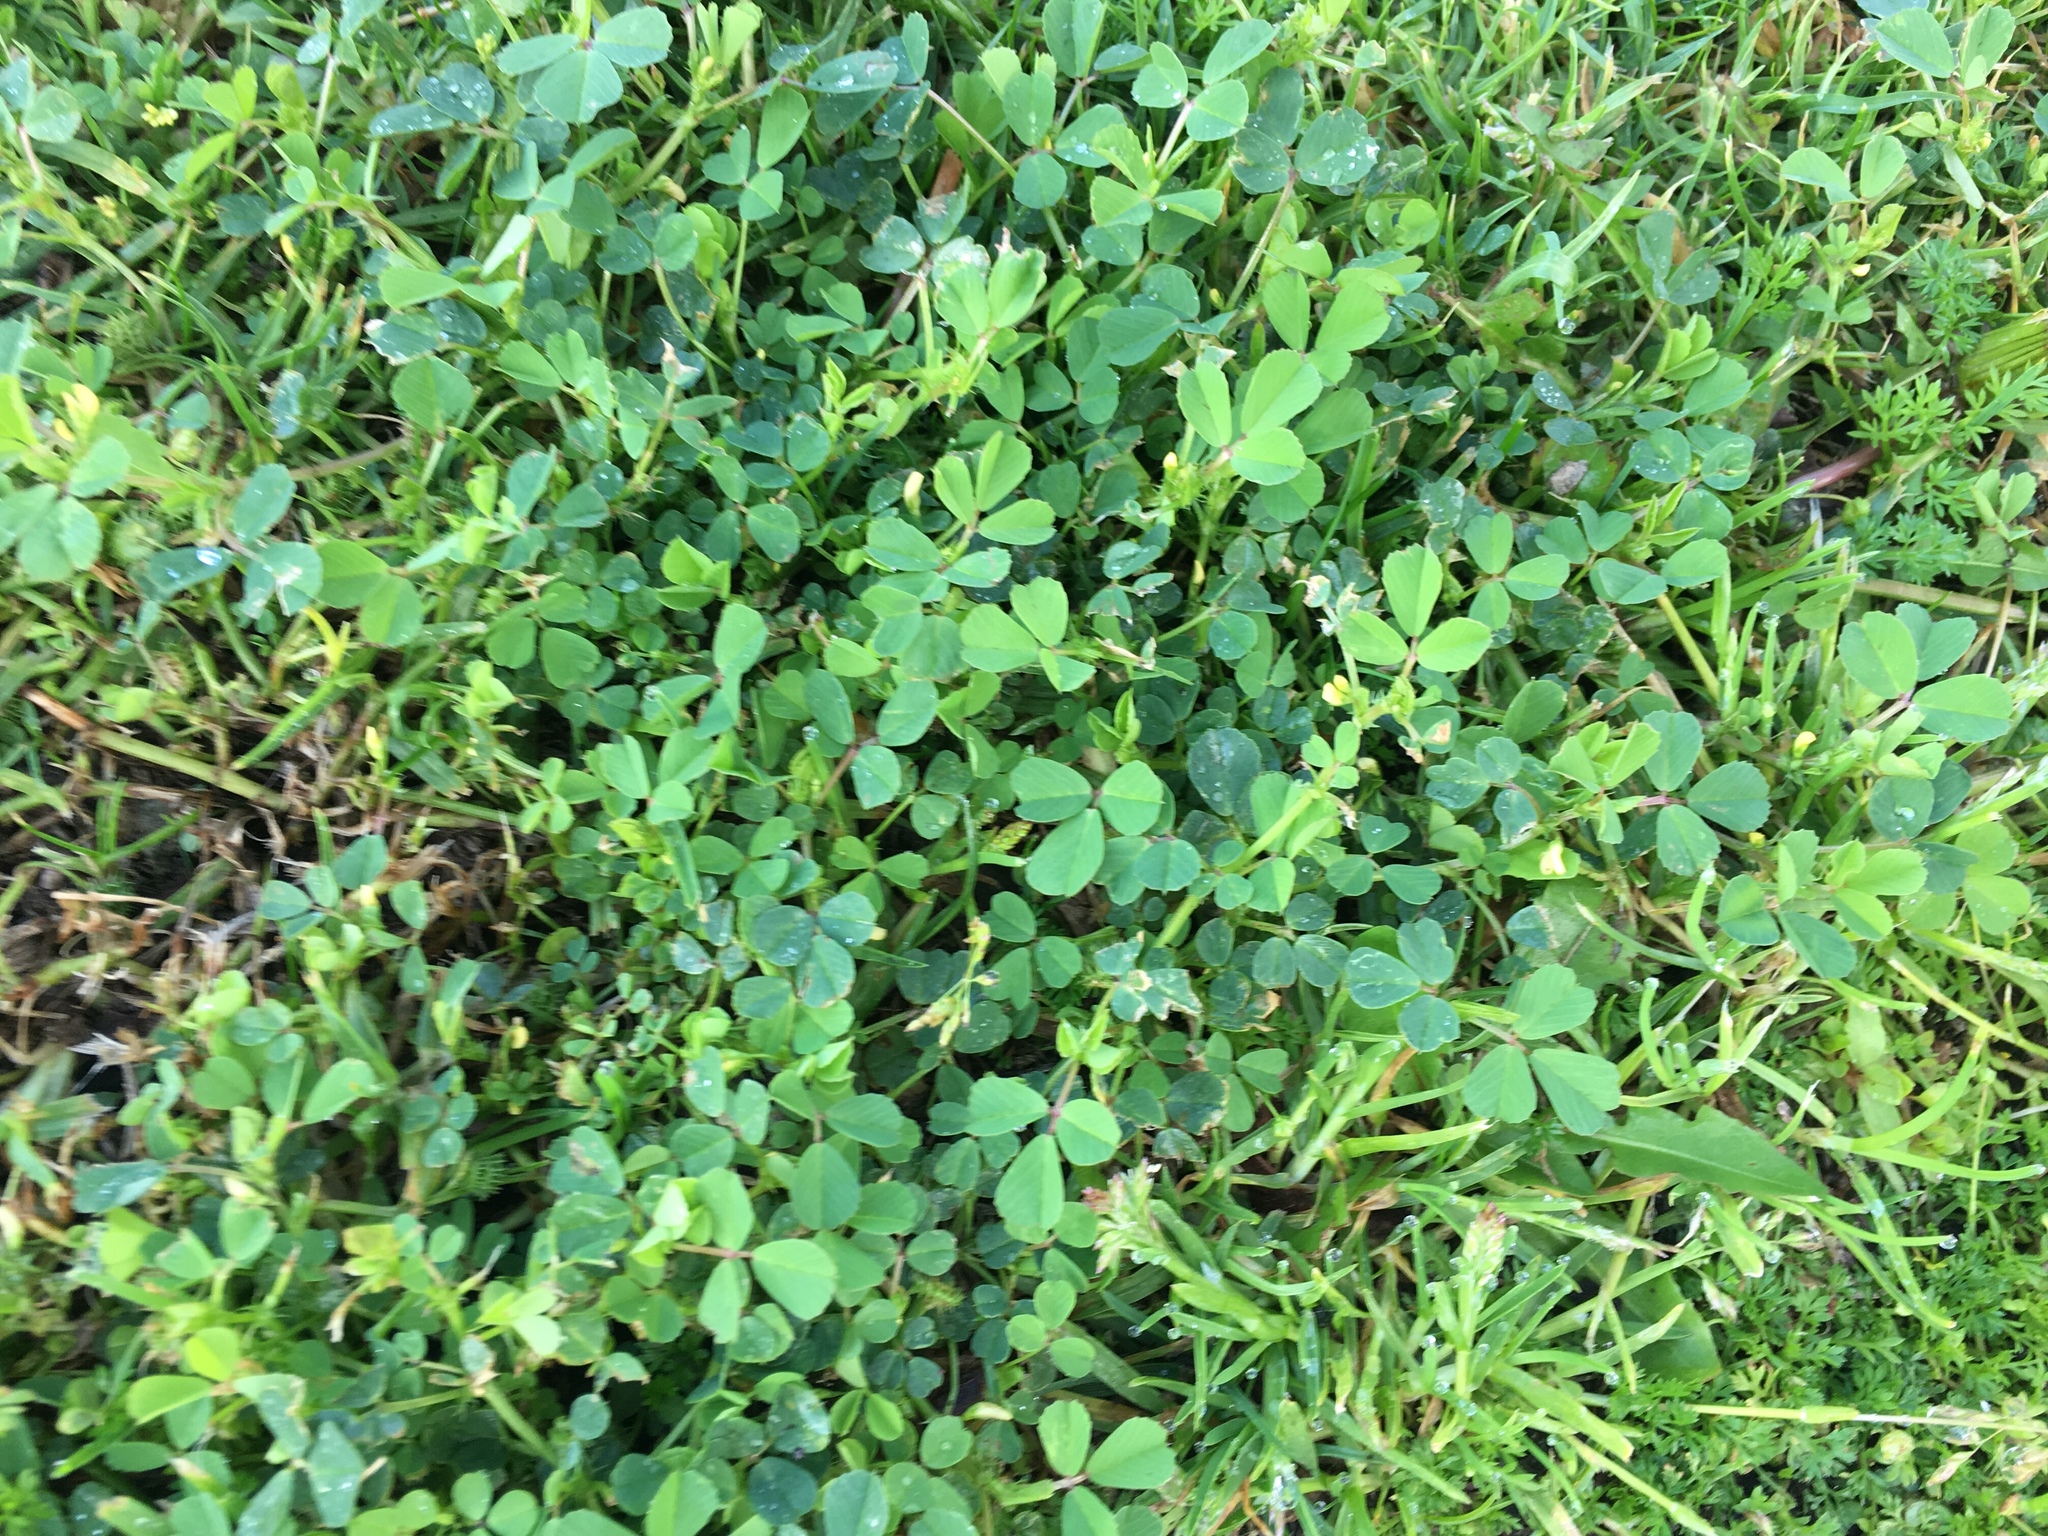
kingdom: Plantae
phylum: Tracheophyta
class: Magnoliopsida
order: Fabales
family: Fabaceae
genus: Medicago
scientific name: Medicago polymorpha
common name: Burclover
